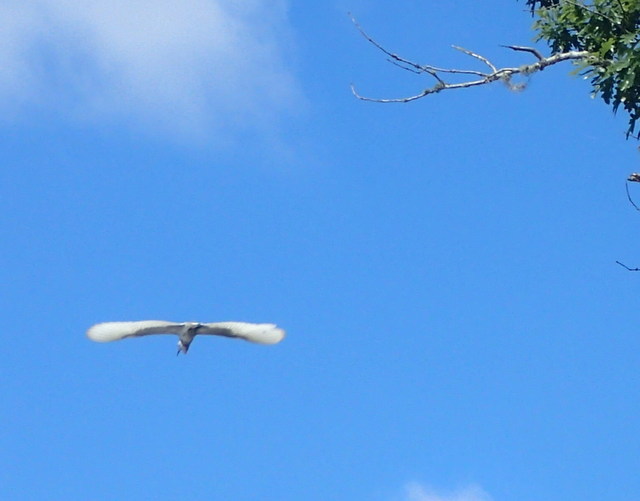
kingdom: Animalia
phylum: Chordata
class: Aves
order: Pelecaniformes
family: Ardeidae
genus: Egretta
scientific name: Egretta caerulea
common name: Little blue heron
